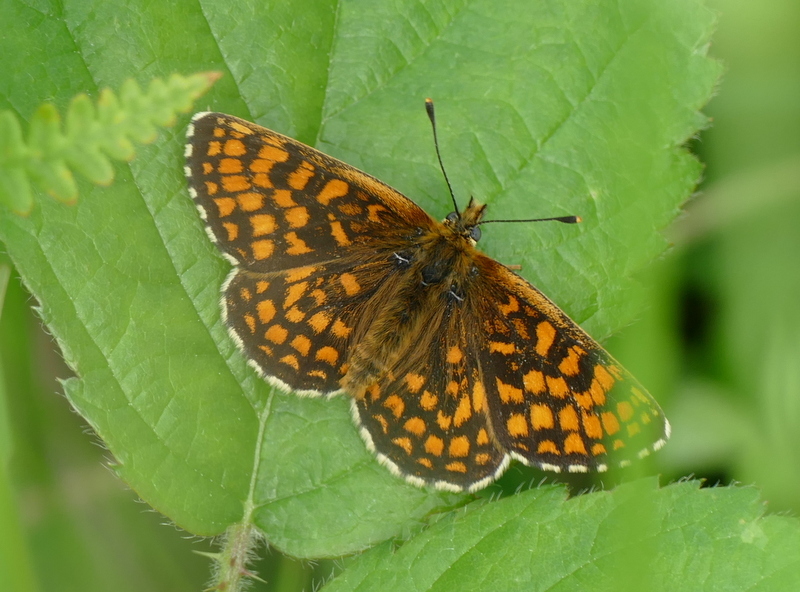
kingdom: Animalia
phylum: Arthropoda
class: Insecta
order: Lepidoptera
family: Nymphalidae
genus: Melitaea
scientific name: Melitaea athalia
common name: Heath fritillary
